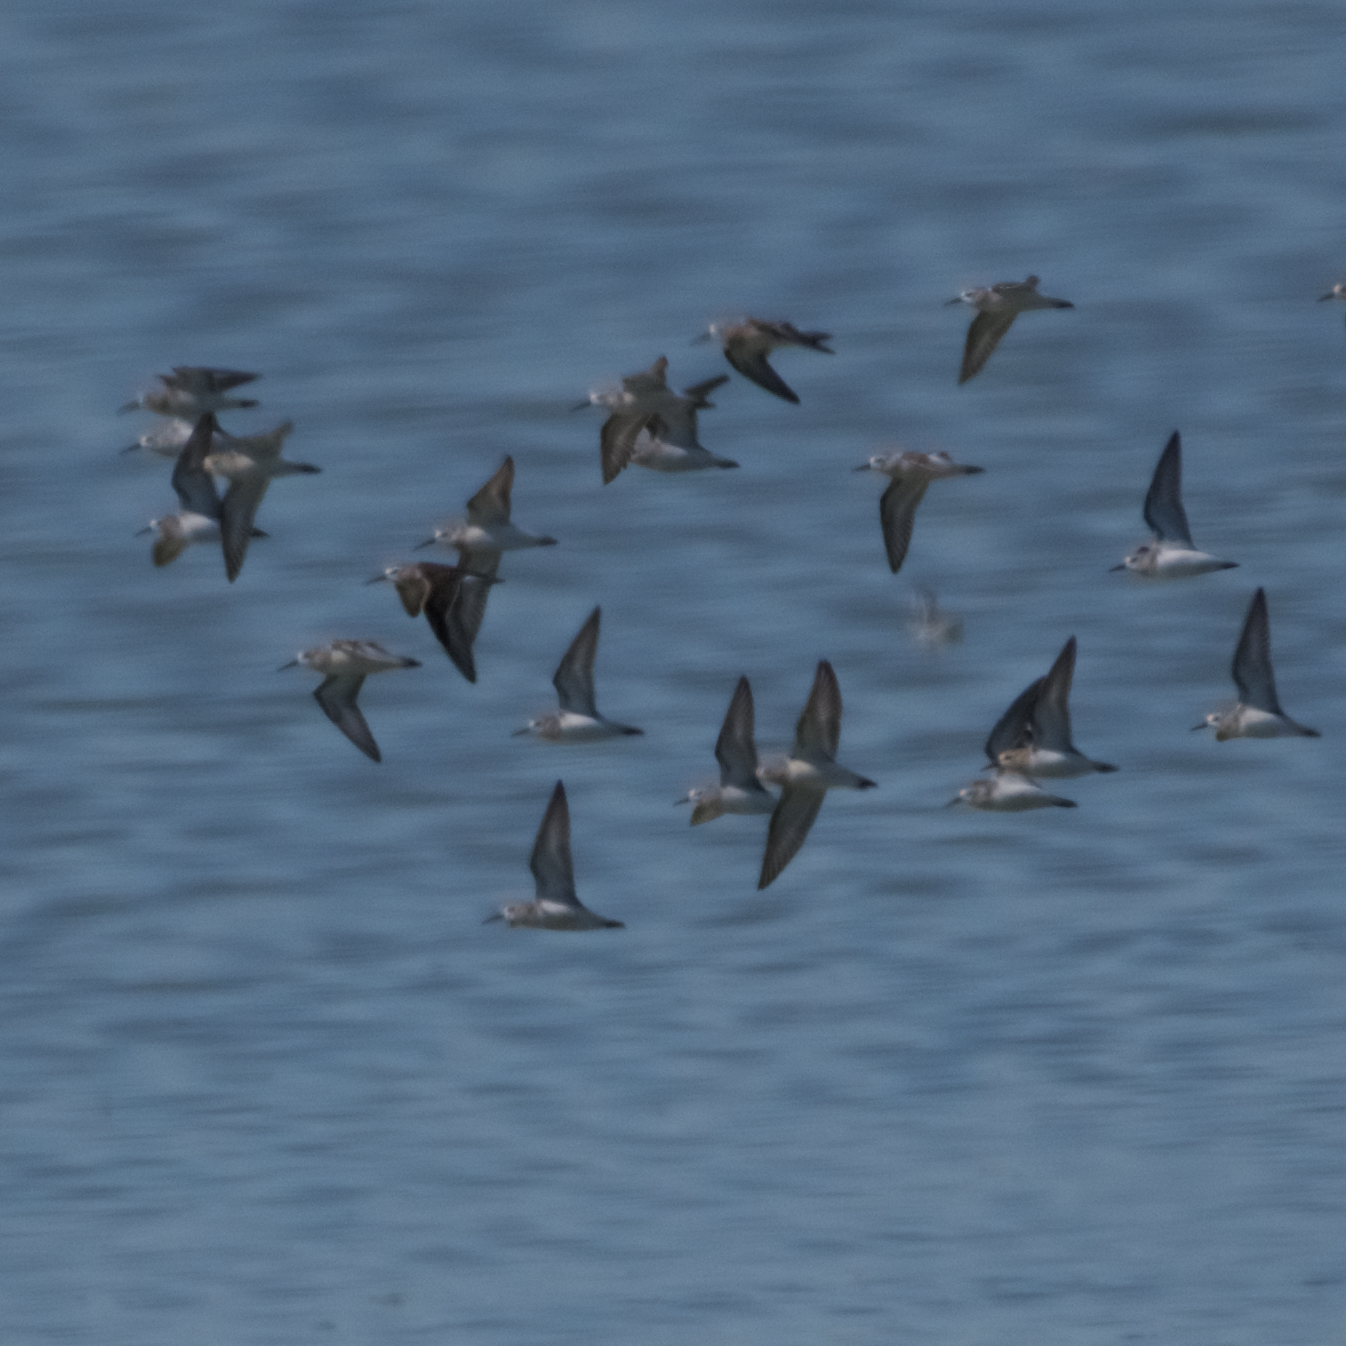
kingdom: Animalia
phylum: Chordata
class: Aves
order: Charadriiformes
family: Scolopacidae
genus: Calidris
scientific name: Calidris mauri
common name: Western sandpiper
